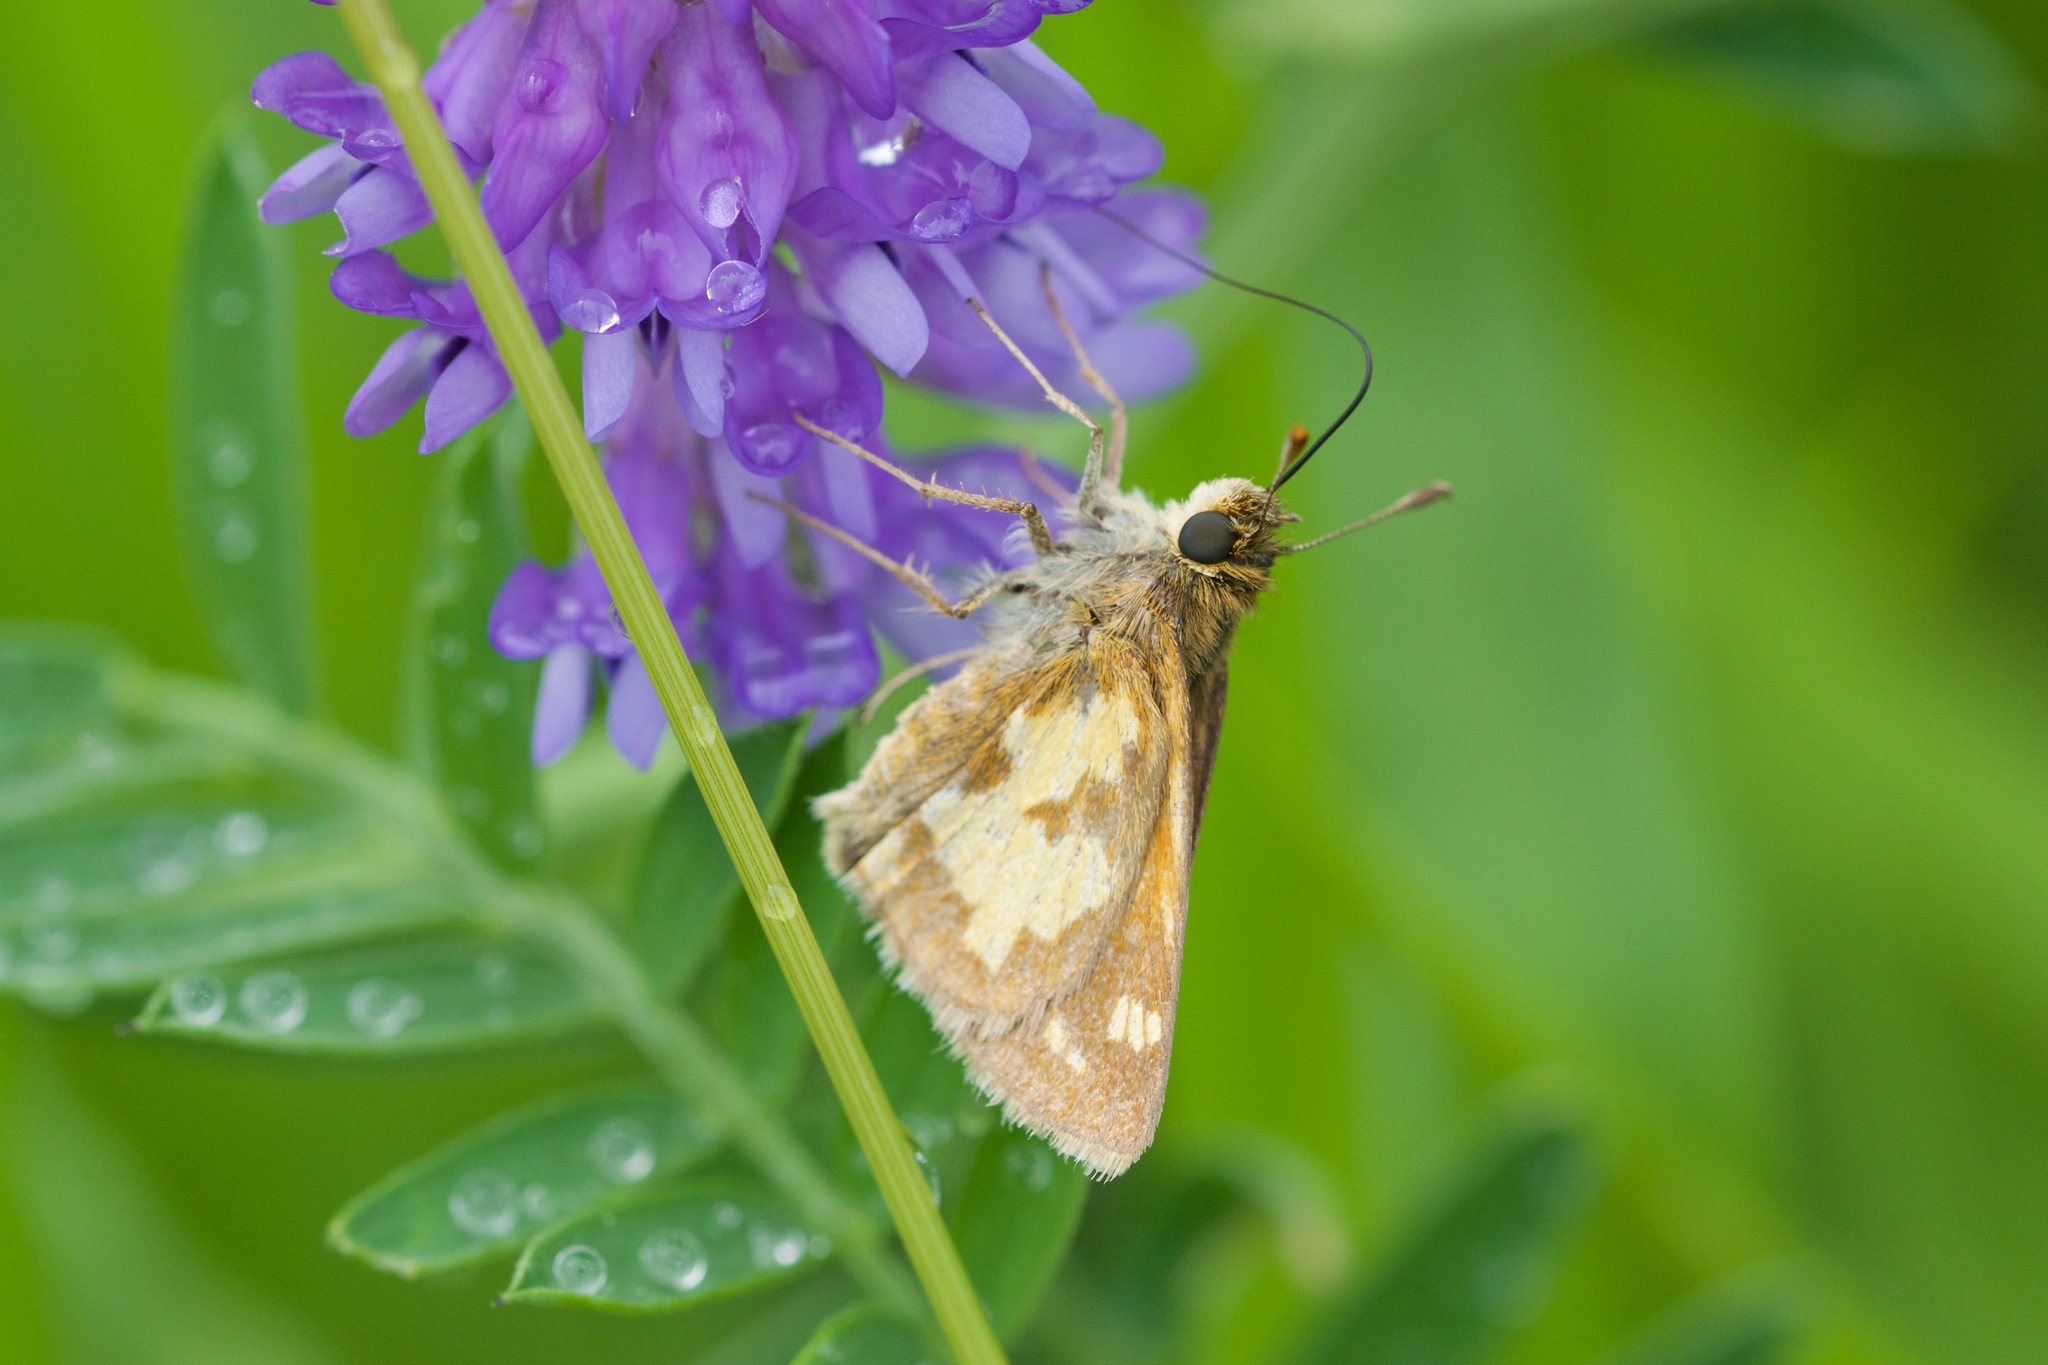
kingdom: Animalia
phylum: Arthropoda
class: Insecta
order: Lepidoptera
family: Hesperiidae
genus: Polites
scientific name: Polites coras
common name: Peck's skipper
